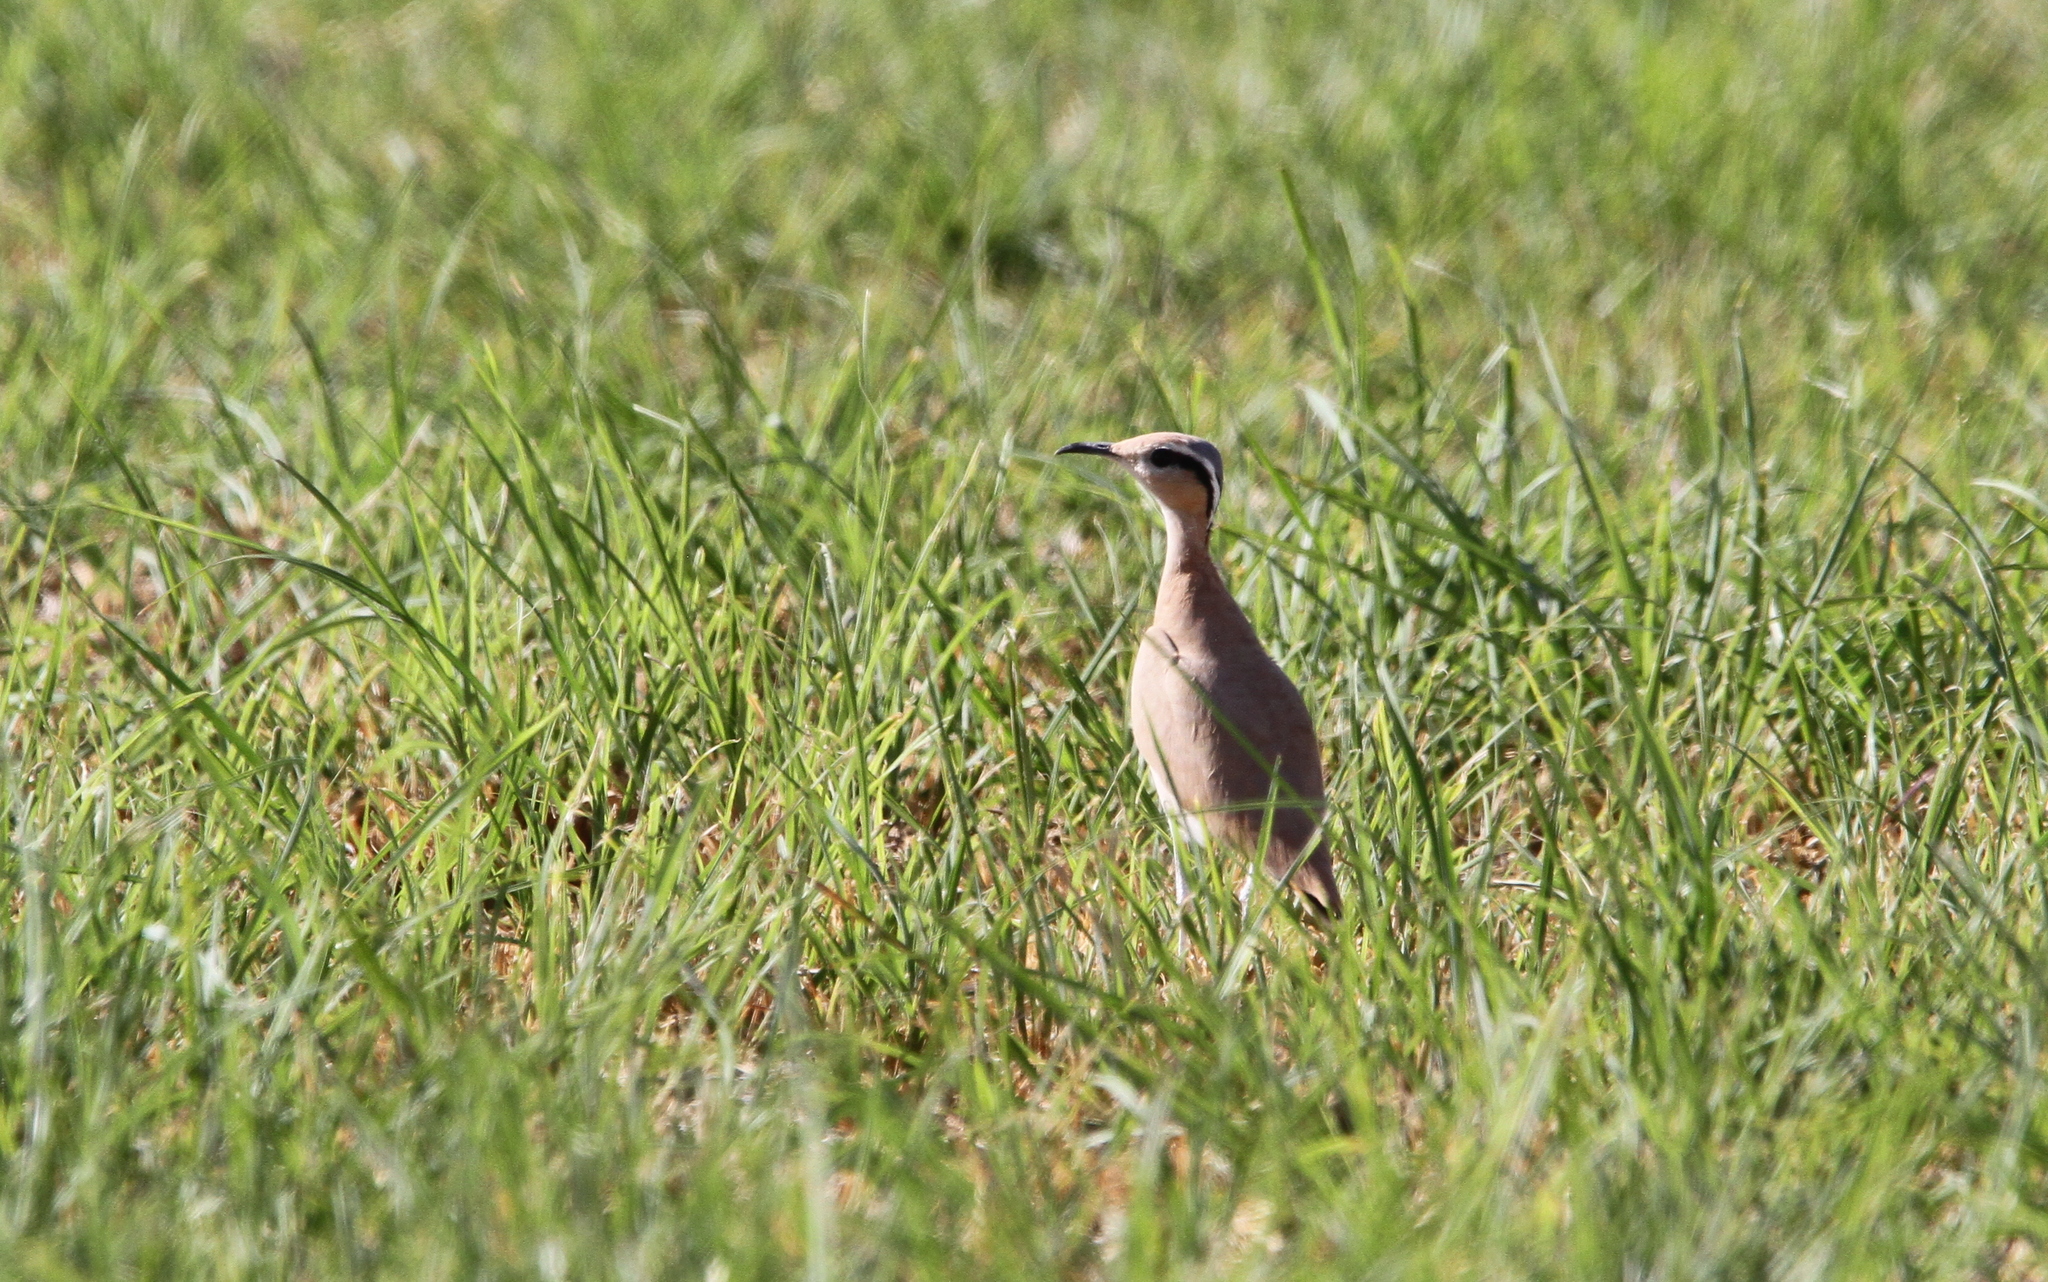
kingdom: Animalia
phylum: Chordata
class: Aves
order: Charadriiformes
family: Glareolidae
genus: Cursorius
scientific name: Cursorius cursor
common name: Cream-colored courser
